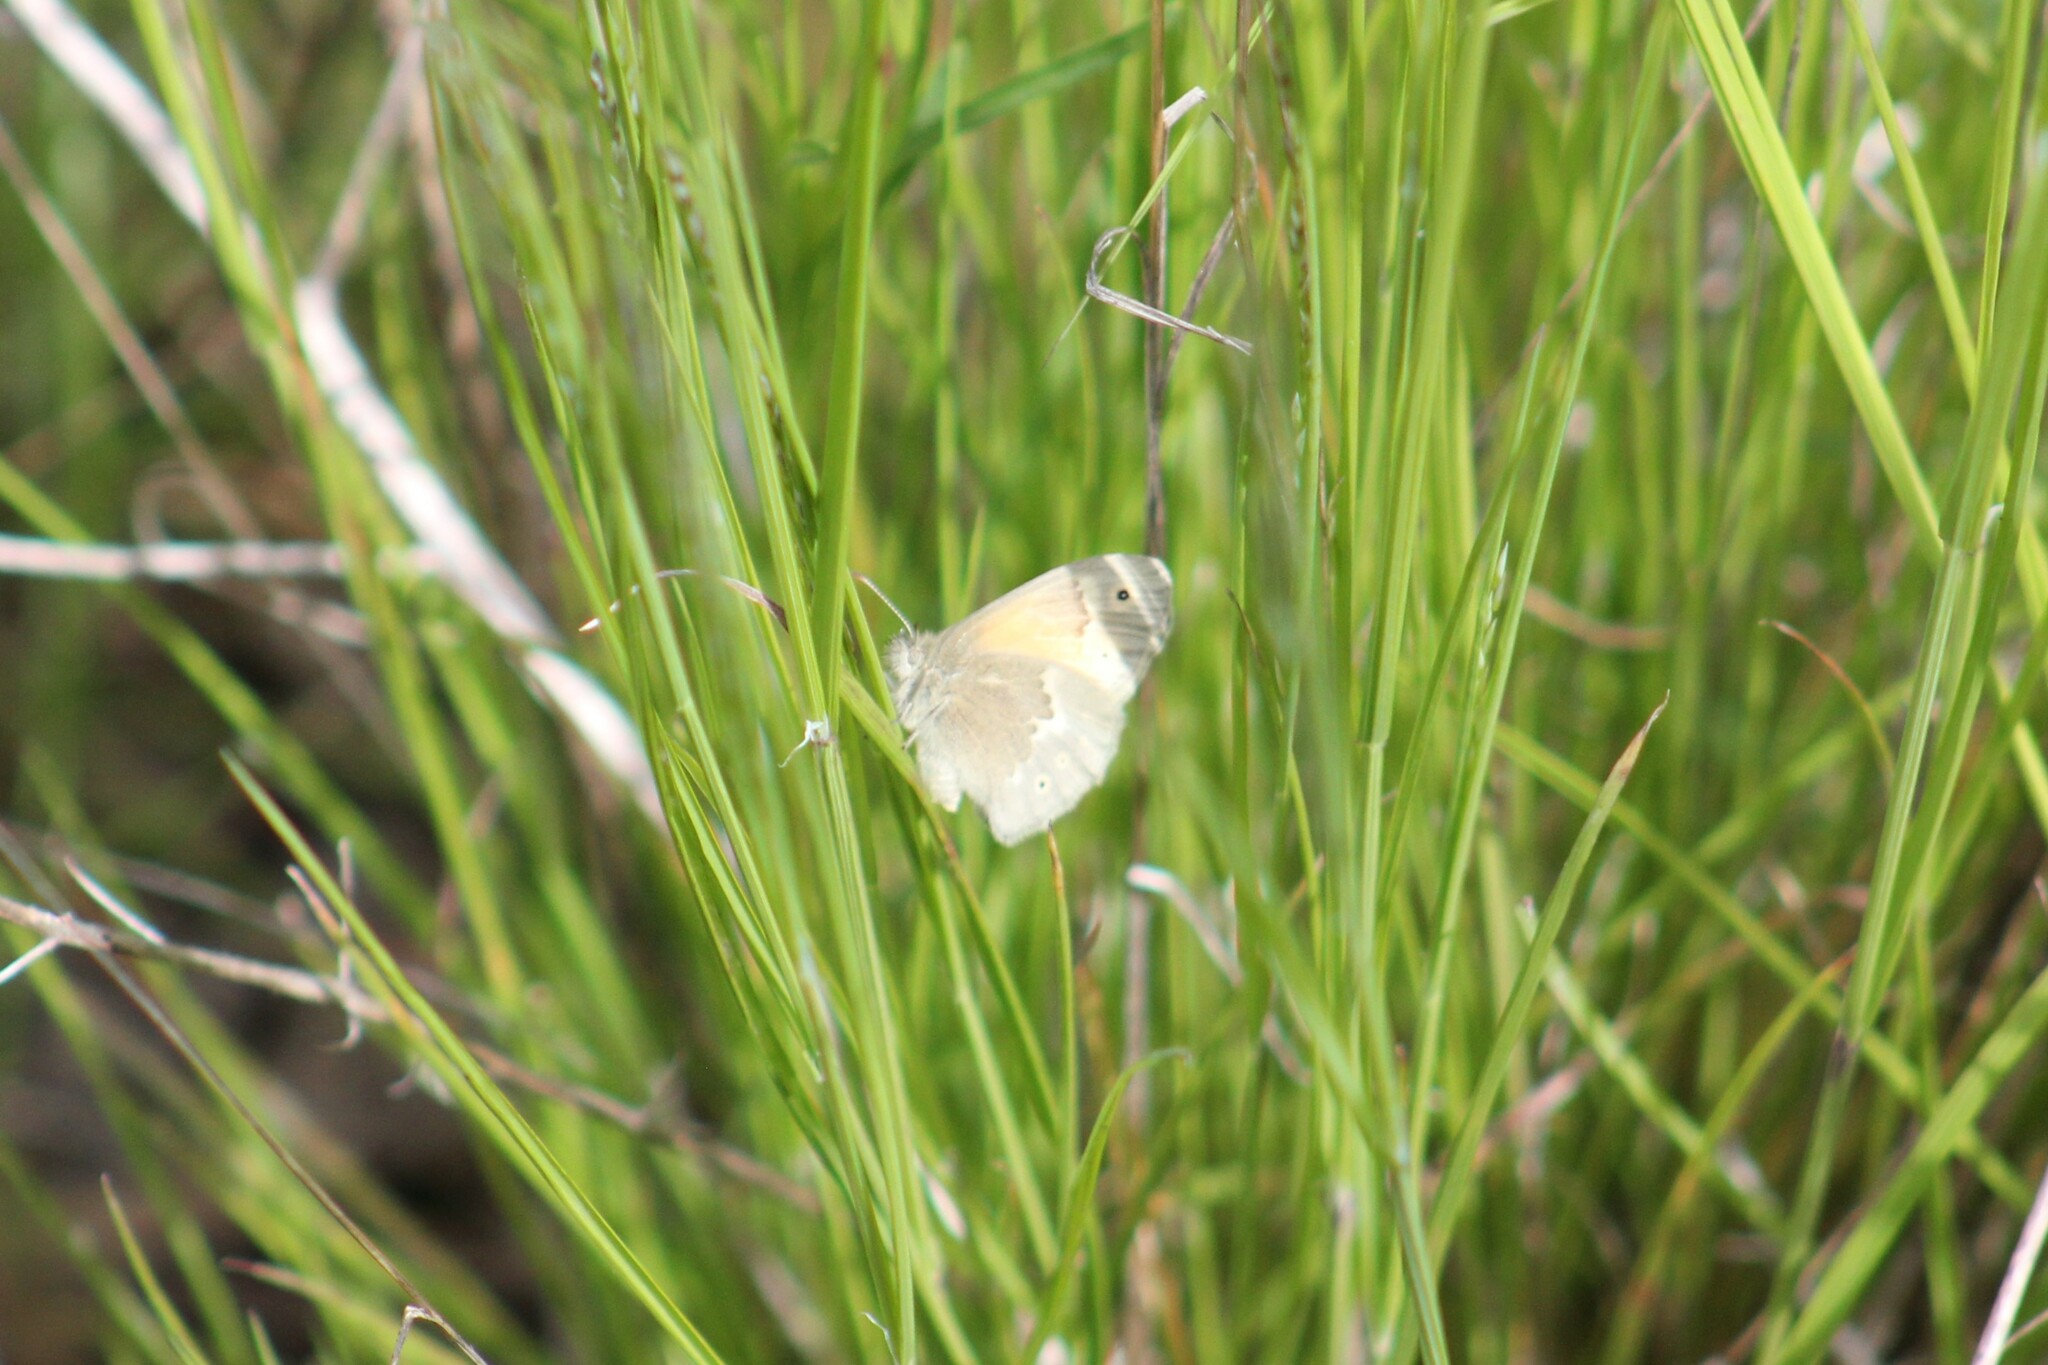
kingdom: Animalia
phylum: Arthropoda
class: Insecta
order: Lepidoptera
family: Nymphalidae
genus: Coenonympha
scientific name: Coenonympha california
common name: Common ringlet
